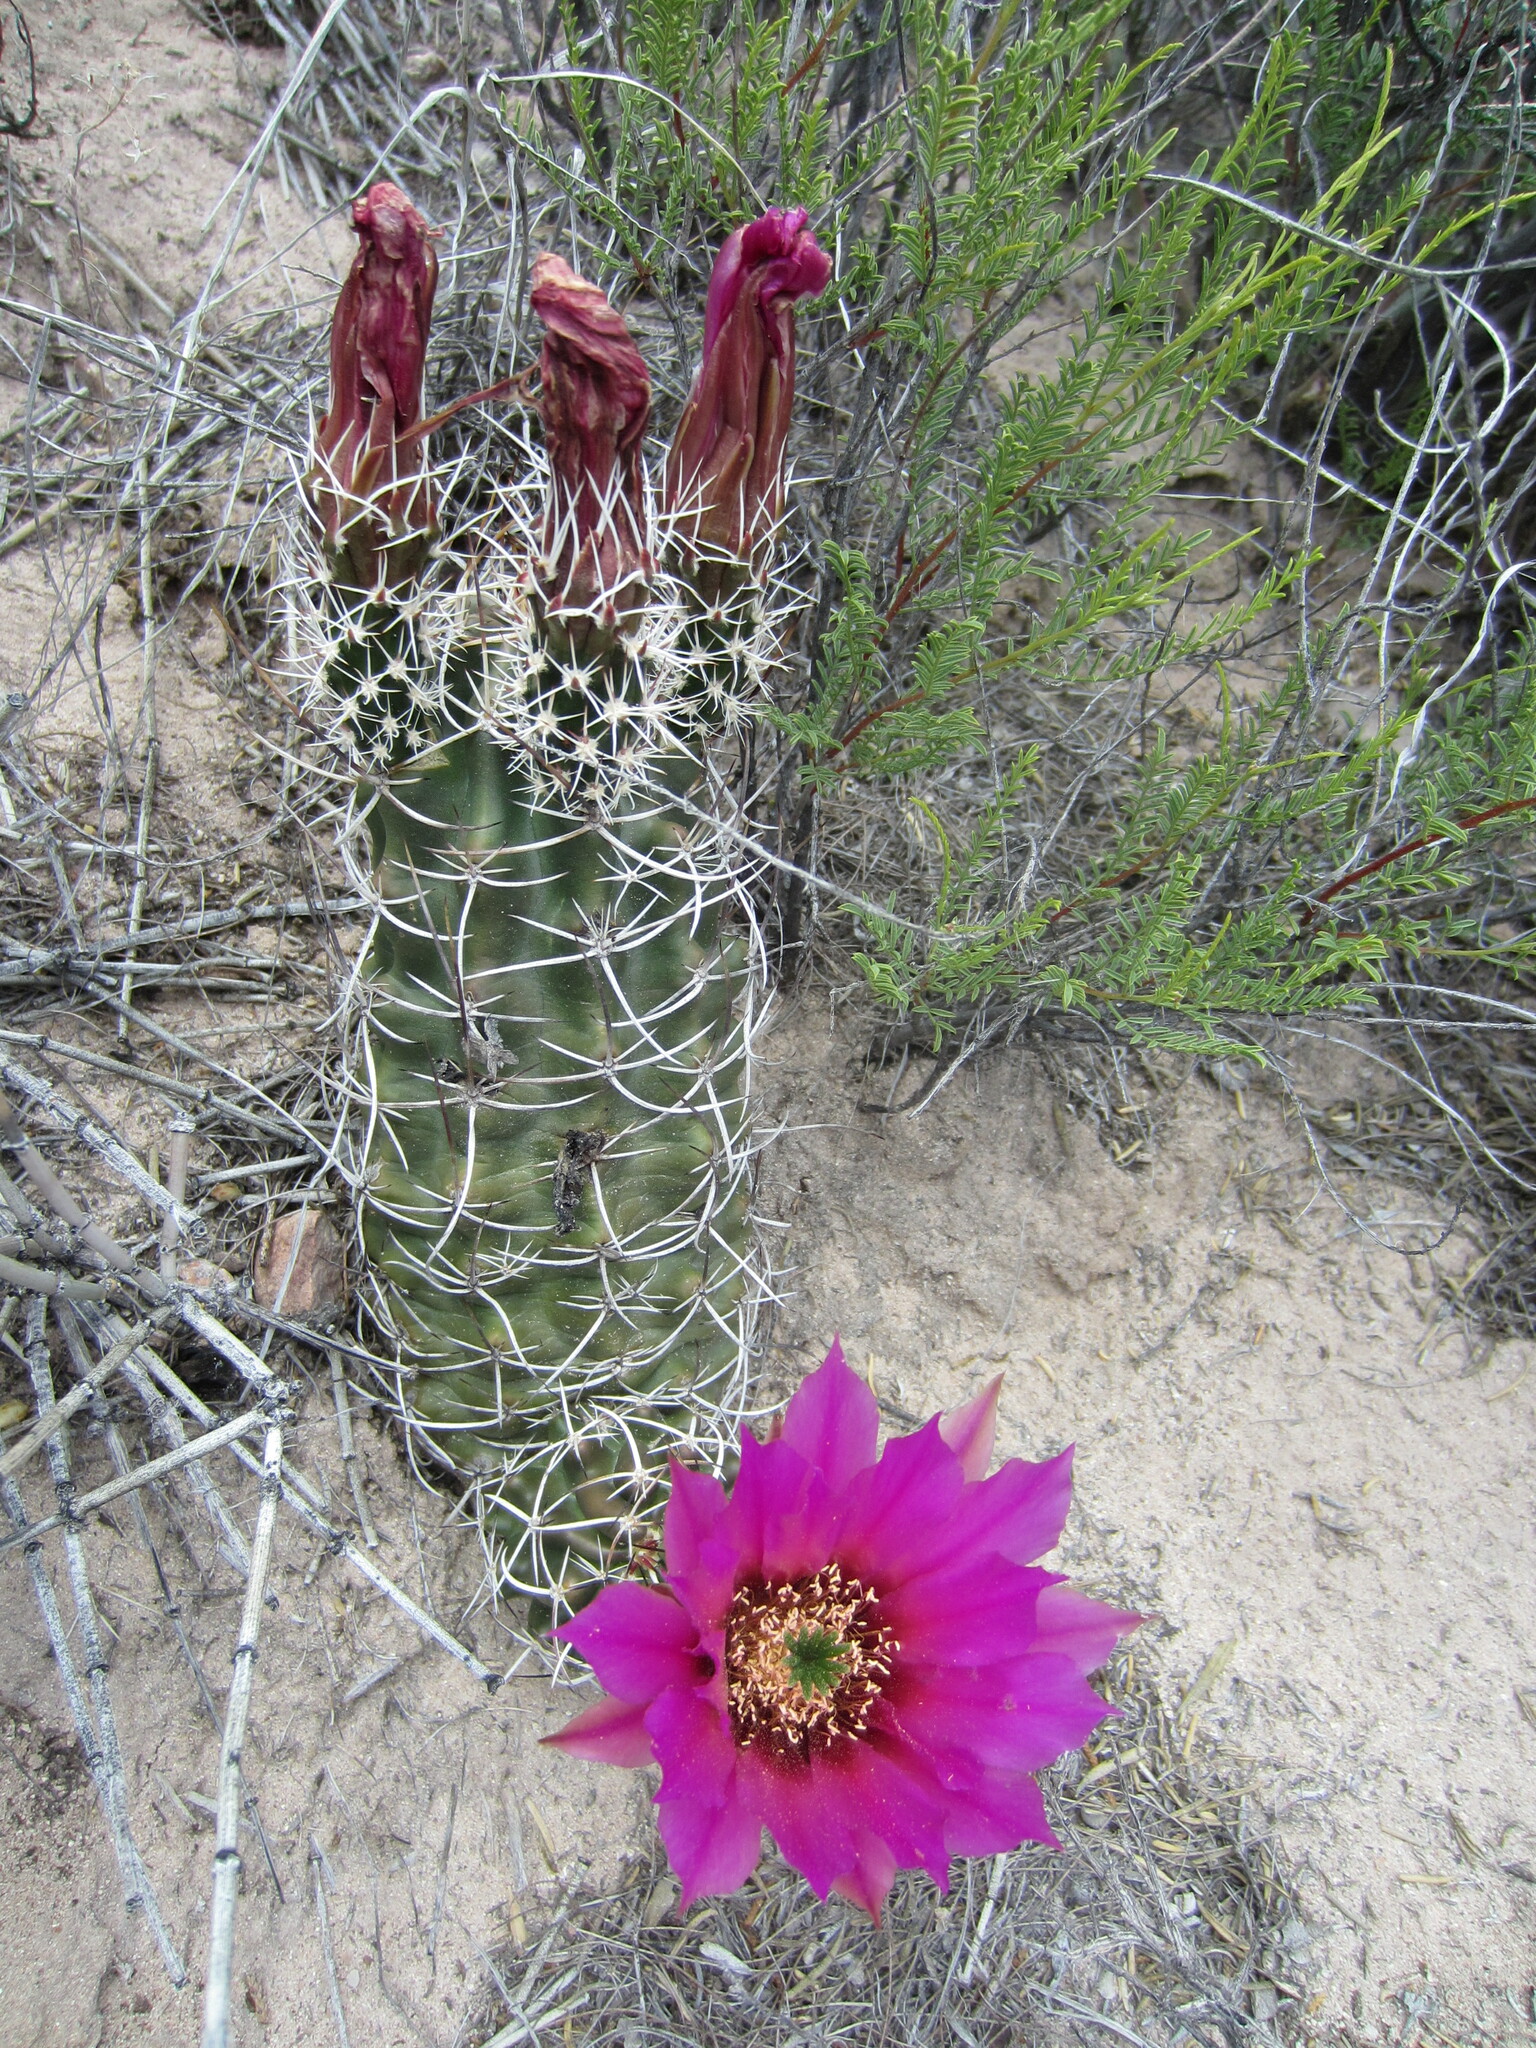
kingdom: Plantae
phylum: Tracheophyta
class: Magnoliopsida
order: Caryophyllales
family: Cactaceae
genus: Echinocereus
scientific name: Echinocereus fendleri
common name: Fendler's hedgehog cactus
